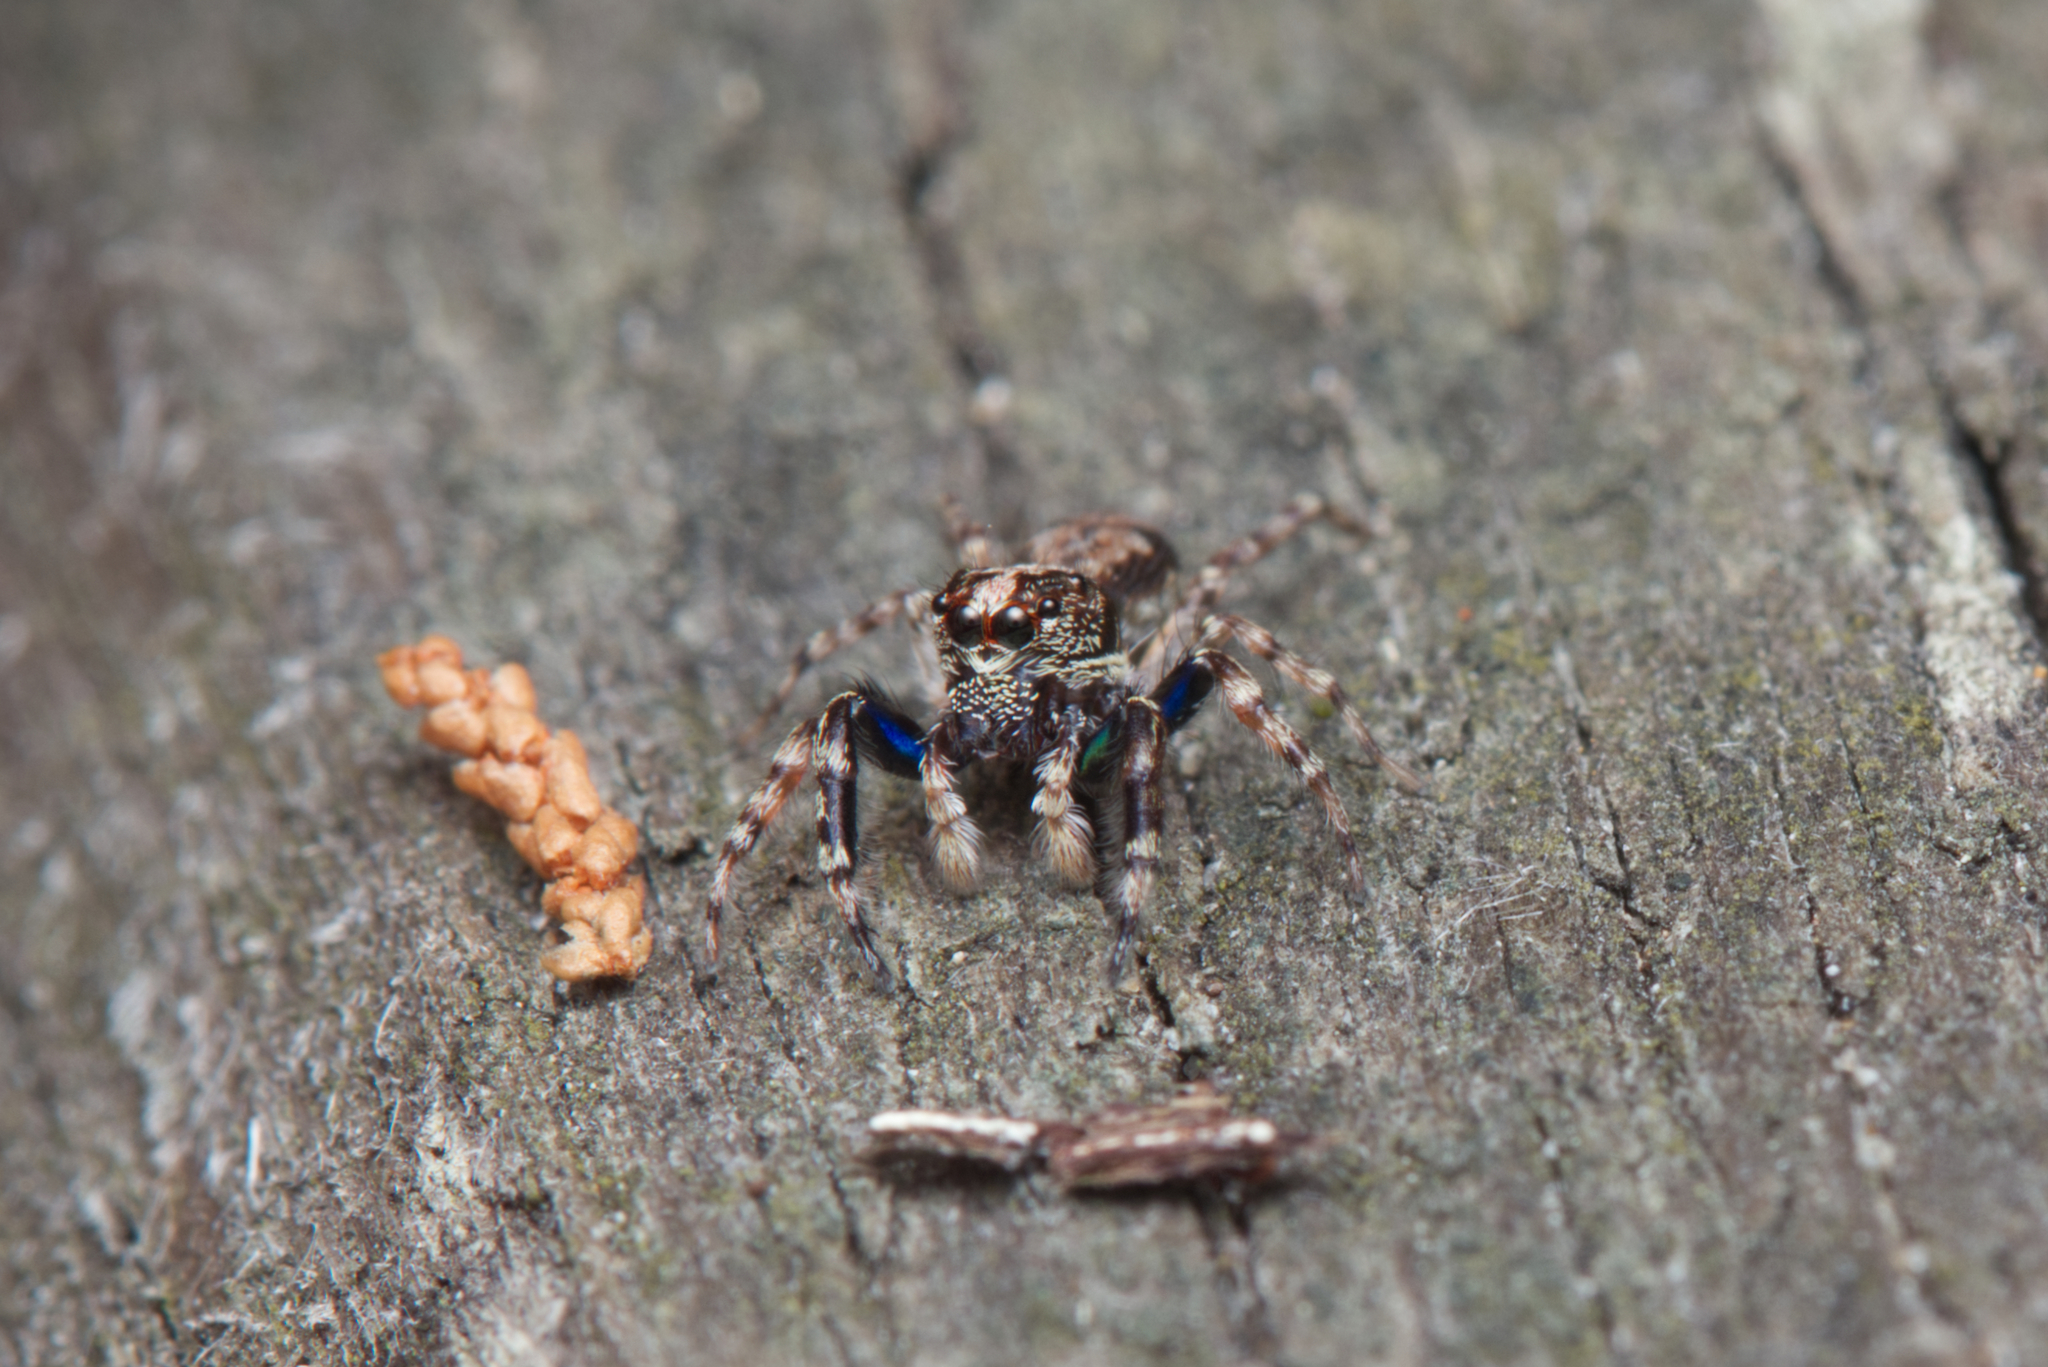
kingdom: Animalia
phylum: Arthropoda
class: Arachnida
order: Araneae
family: Salticidae
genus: Apricia
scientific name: Apricia bracteata
